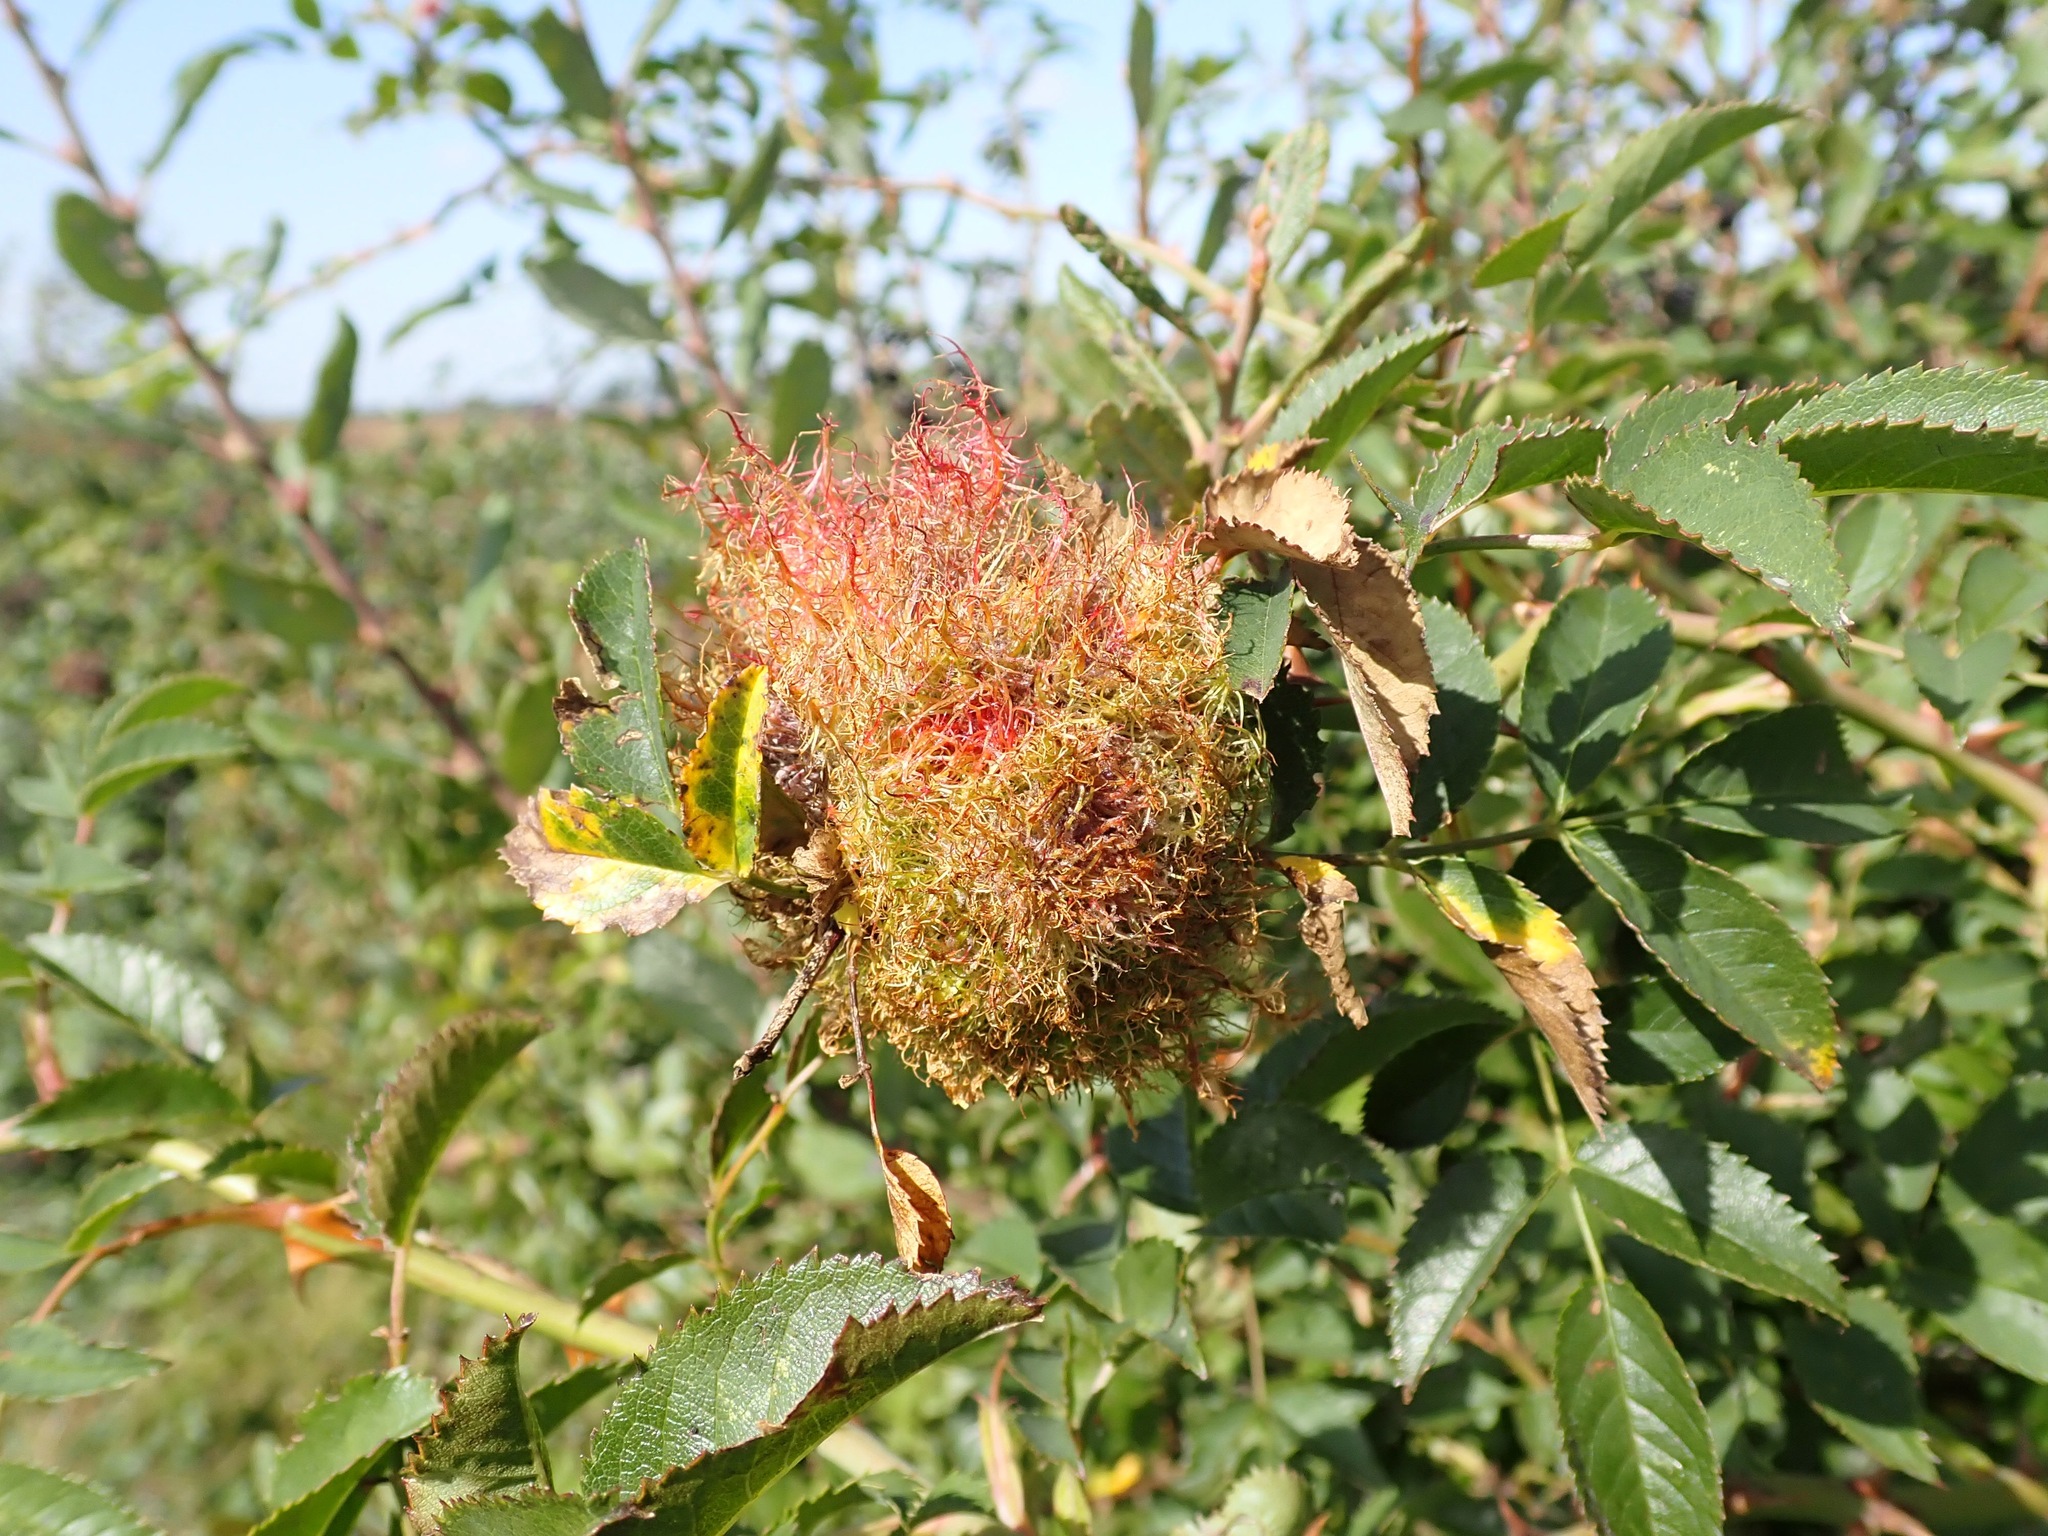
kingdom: Animalia
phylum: Arthropoda
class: Insecta
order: Hymenoptera
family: Cynipidae
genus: Diplolepis
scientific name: Diplolepis rosae
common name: Bedeguar gall
